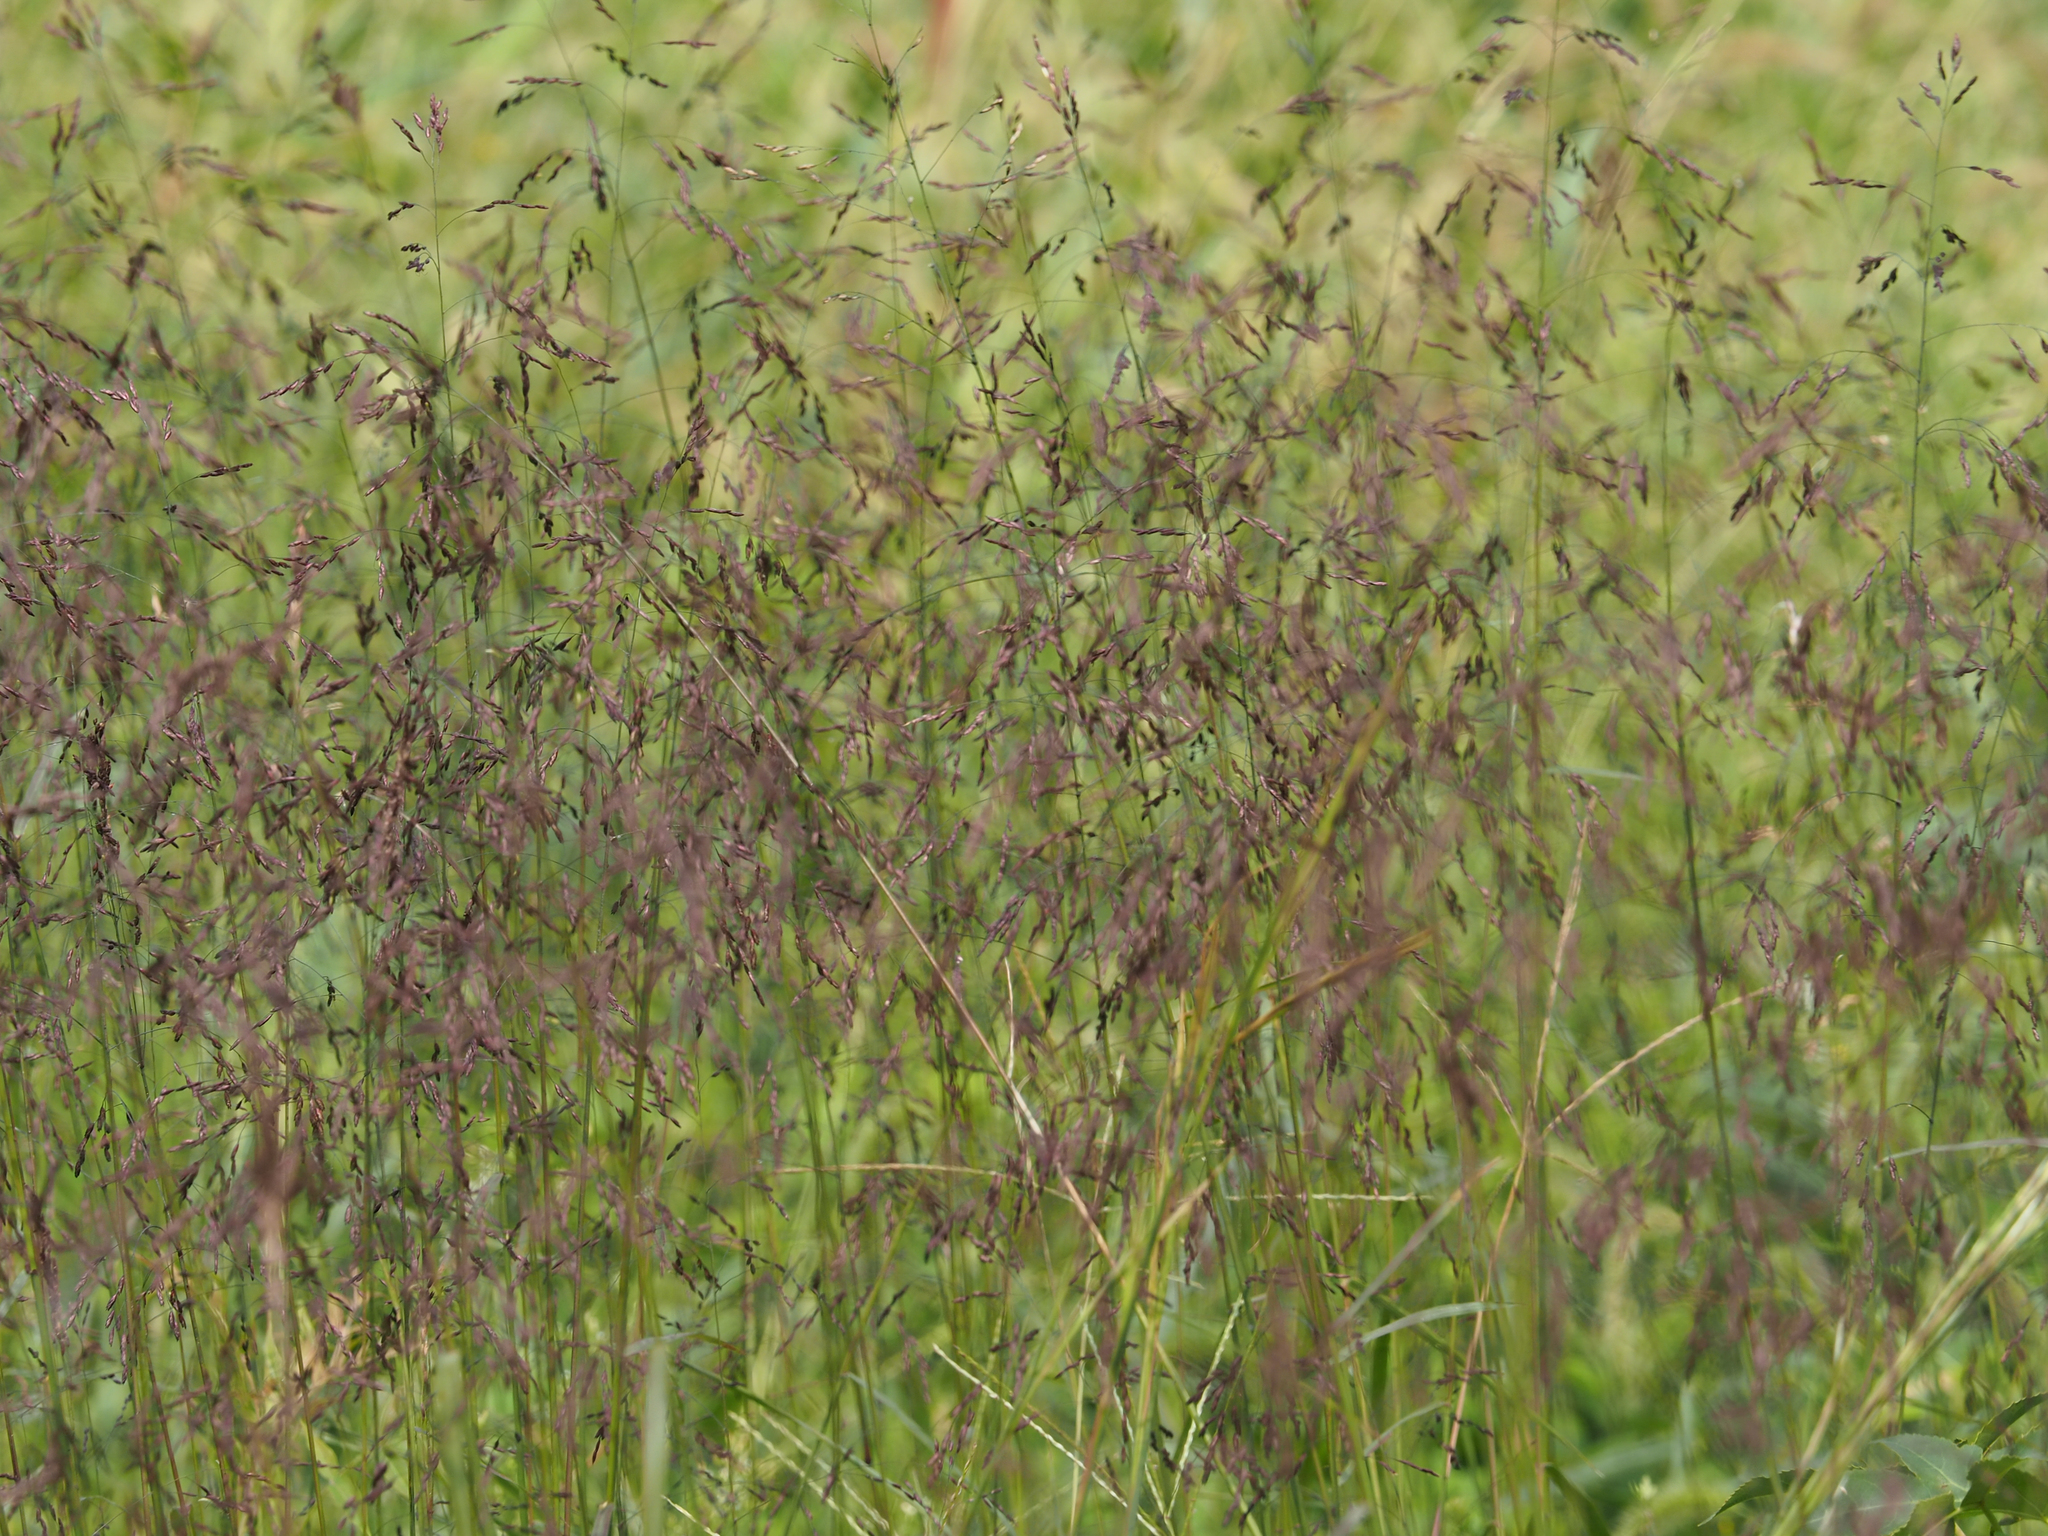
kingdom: Plantae
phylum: Tracheophyta
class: Liliopsida
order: Poales
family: Poaceae
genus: Tridens
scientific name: Tridens flavus
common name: Purpletop
